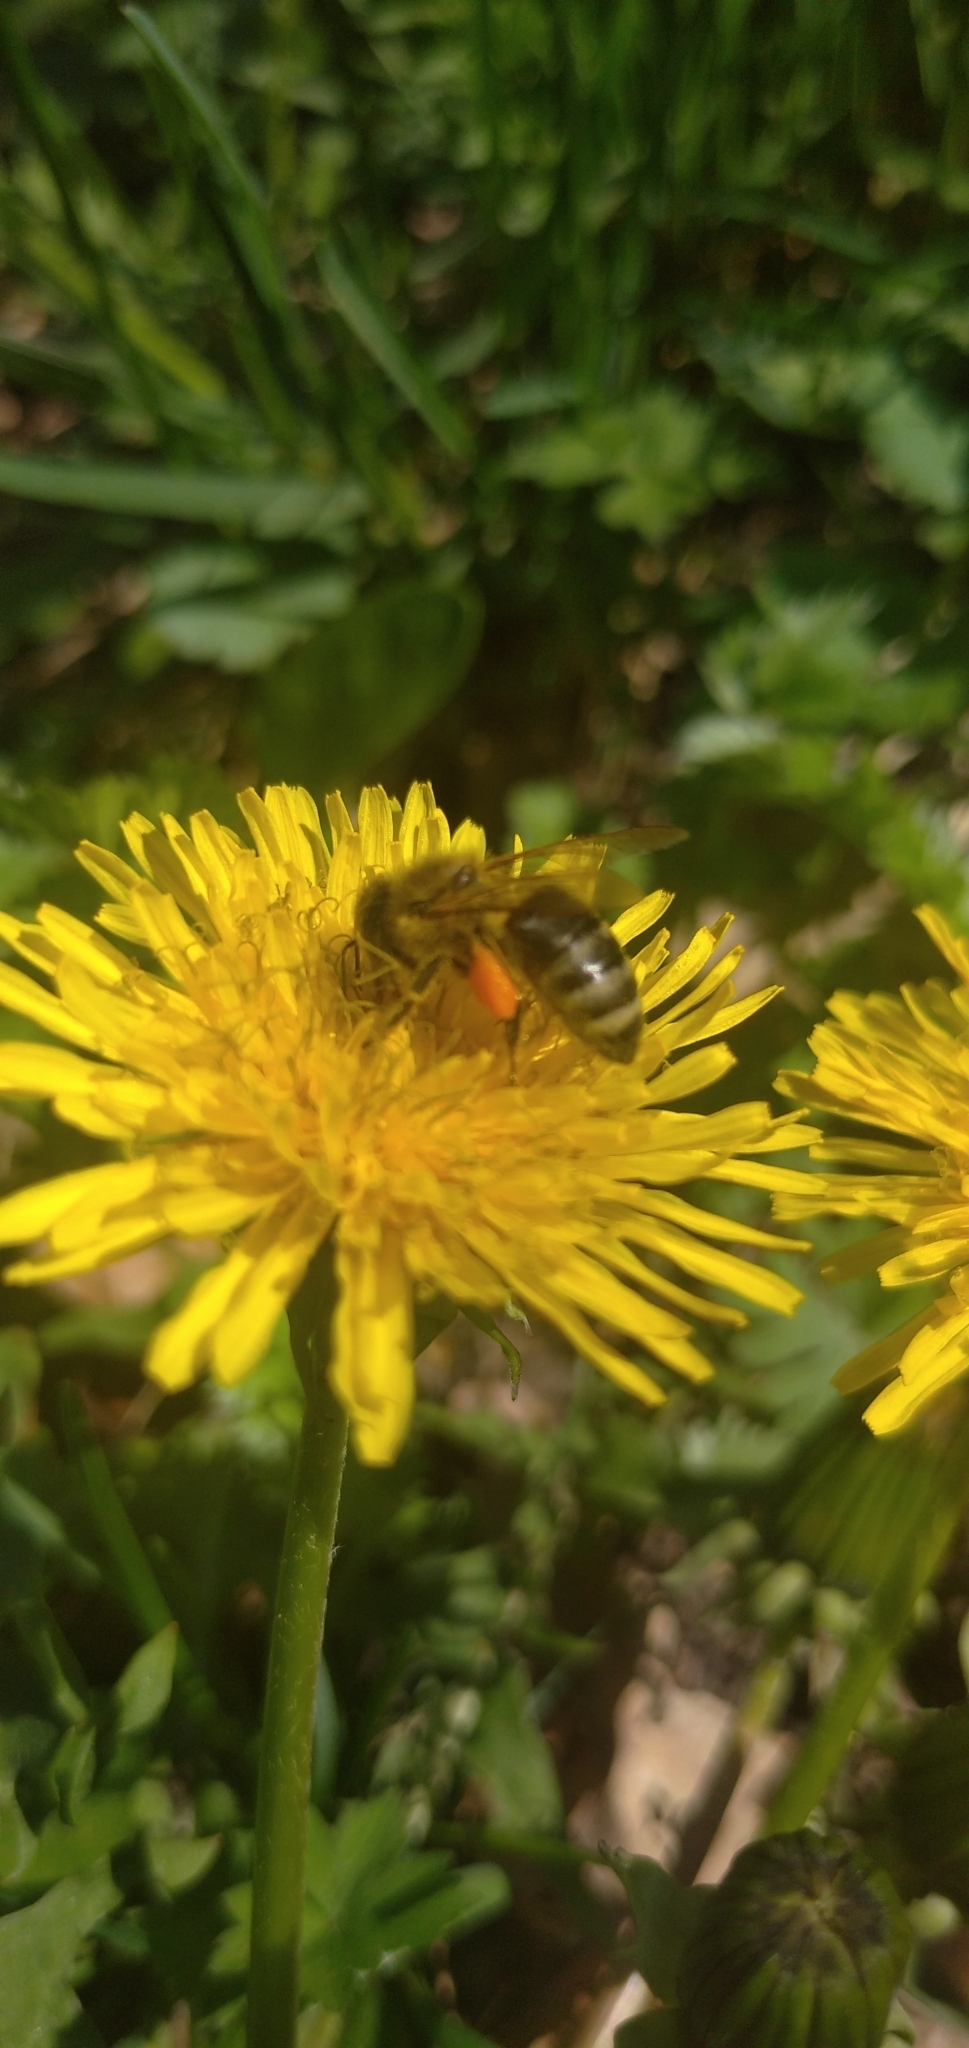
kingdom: Animalia
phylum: Arthropoda
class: Insecta
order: Hymenoptera
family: Apidae
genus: Apis
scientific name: Apis mellifera
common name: Honey bee
